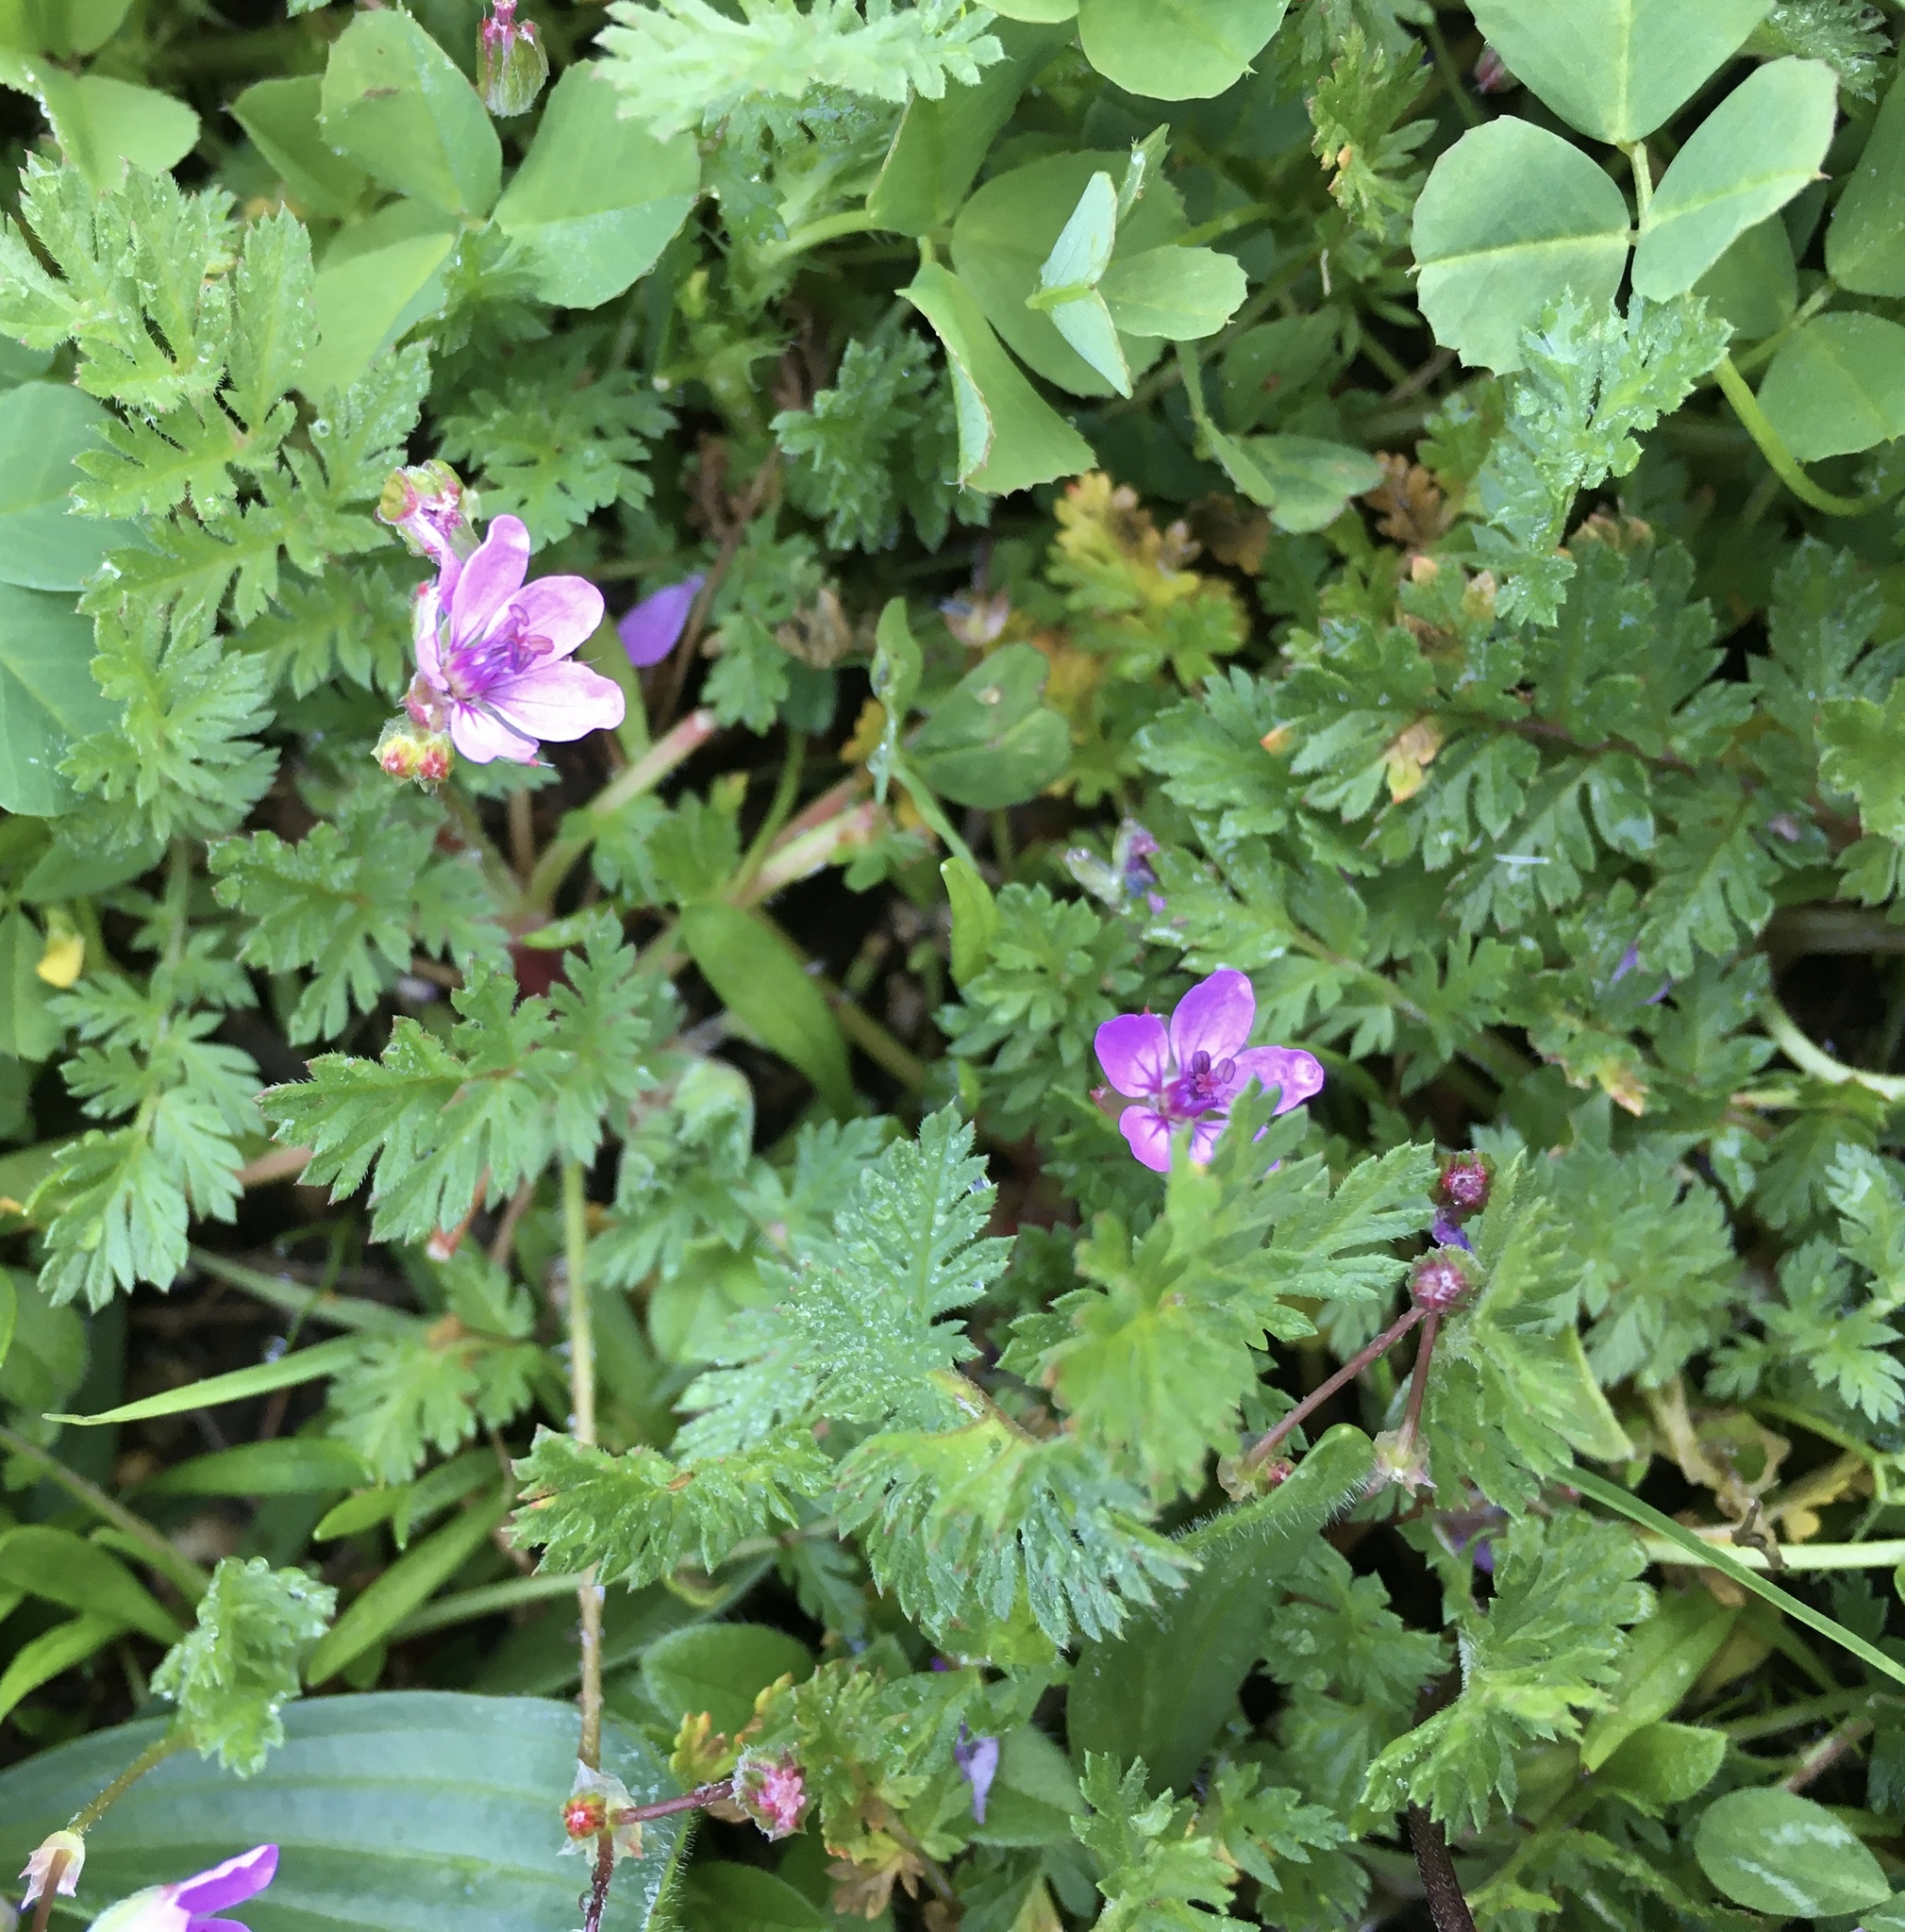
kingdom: Plantae
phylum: Tracheophyta
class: Magnoliopsida
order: Geraniales
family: Geraniaceae
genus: Erodium
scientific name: Erodium cicutarium
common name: Common stork's-bill
